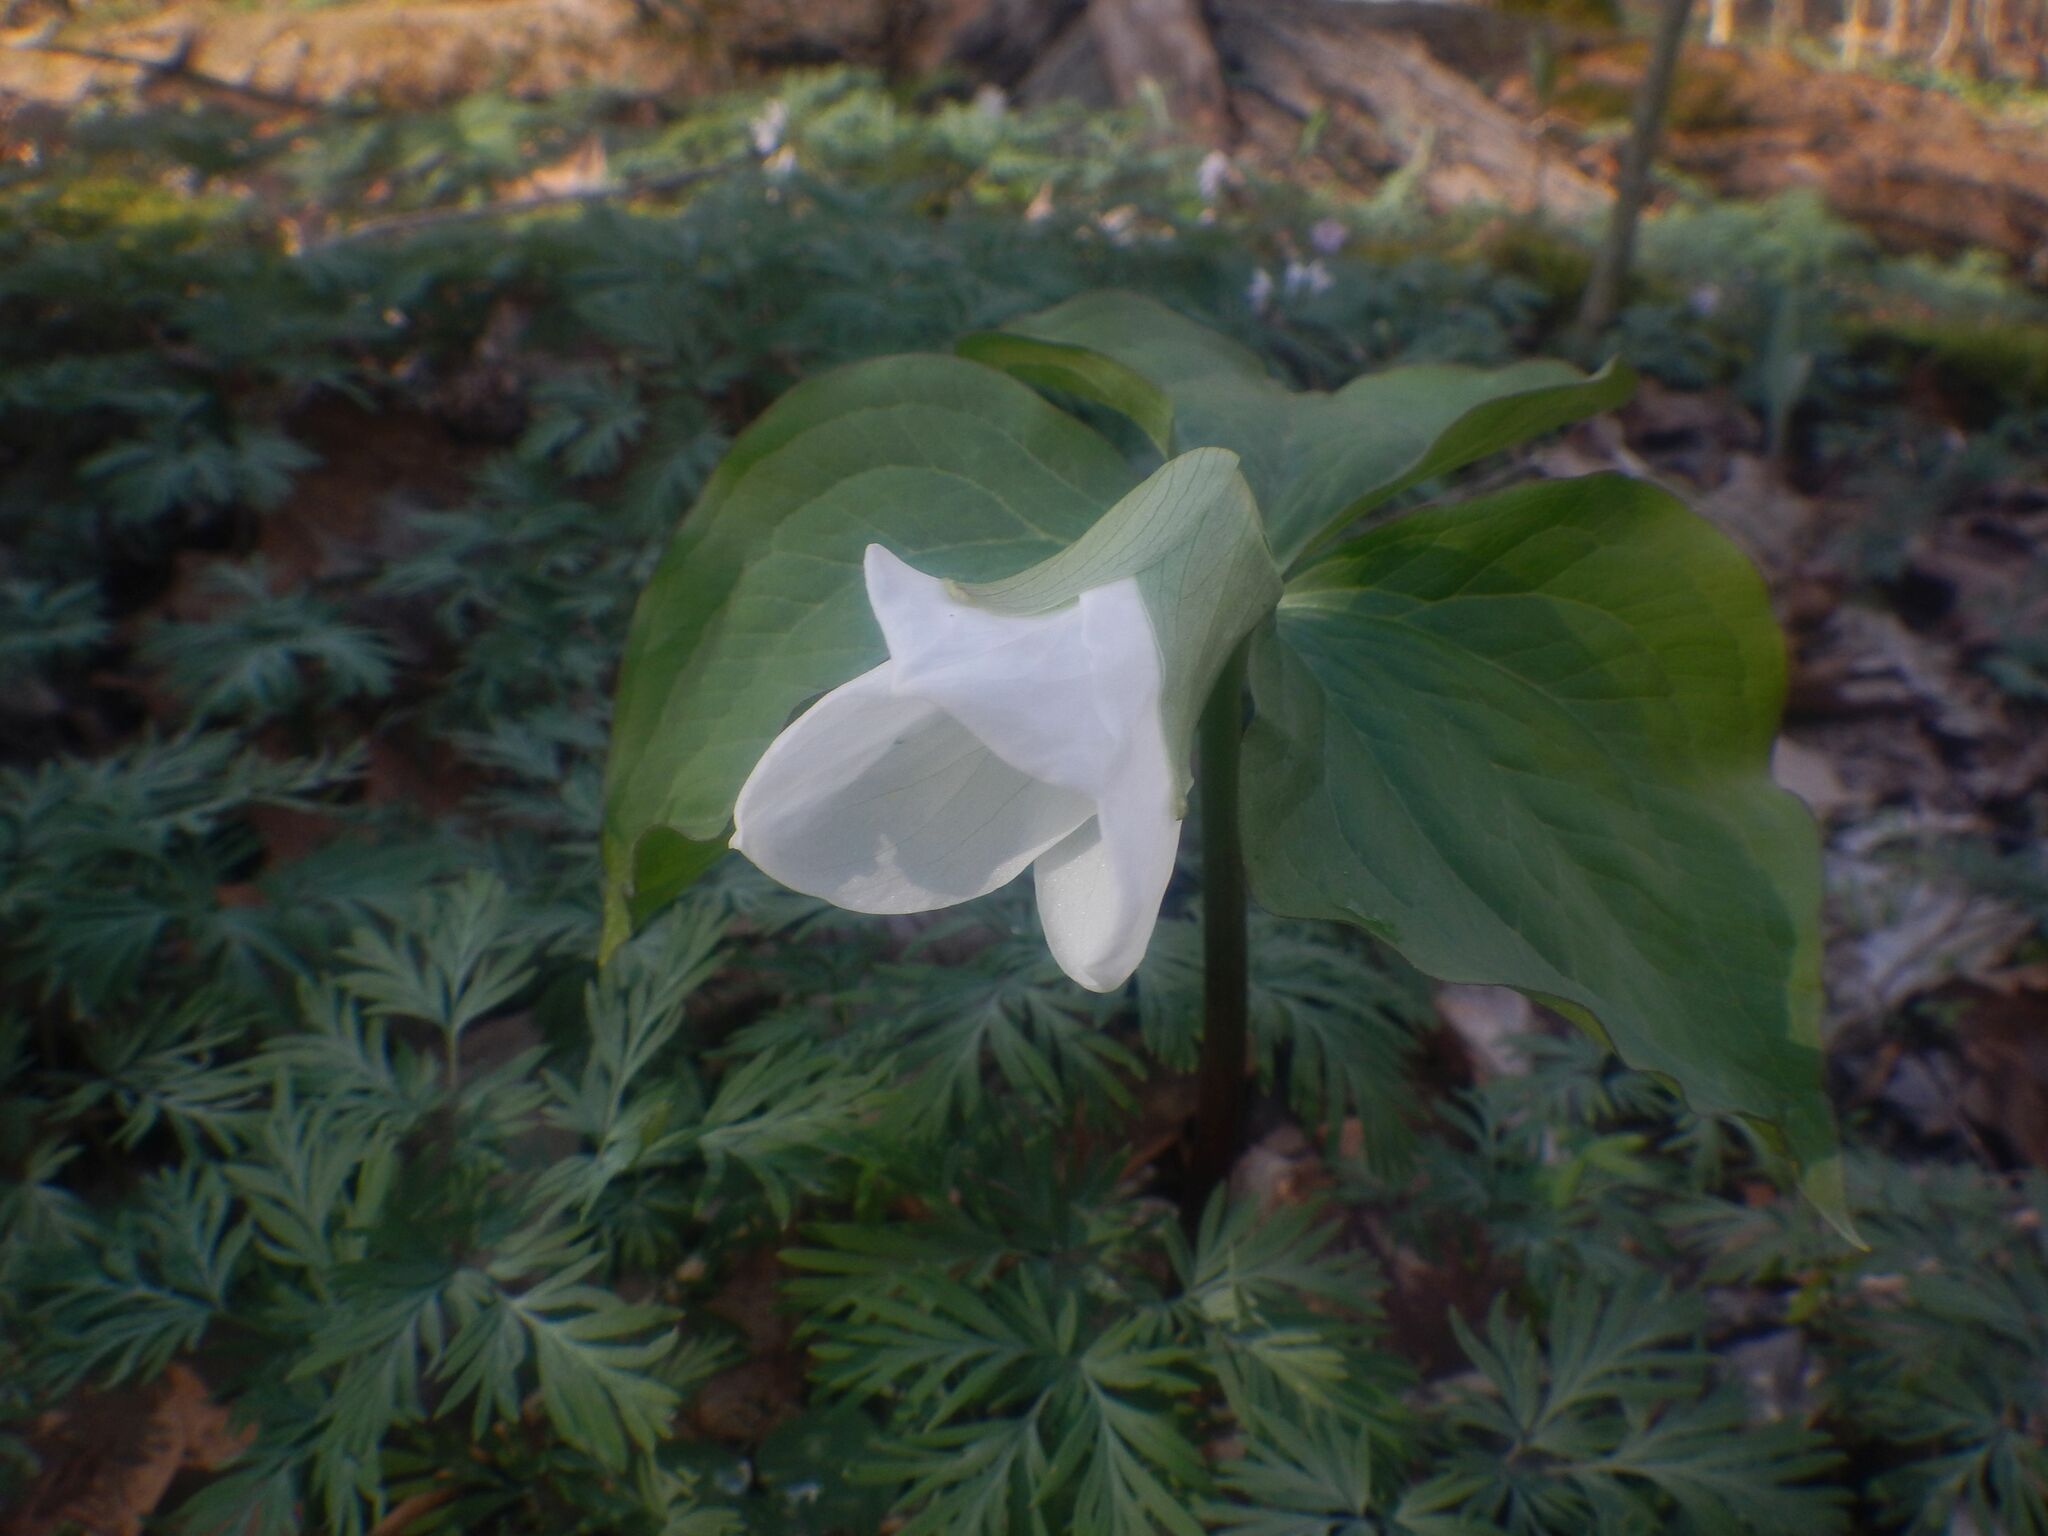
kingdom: Plantae
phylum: Tracheophyta
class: Liliopsida
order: Liliales
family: Melanthiaceae
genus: Trillium
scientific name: Trillium grandiflorum
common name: Great white trillium
